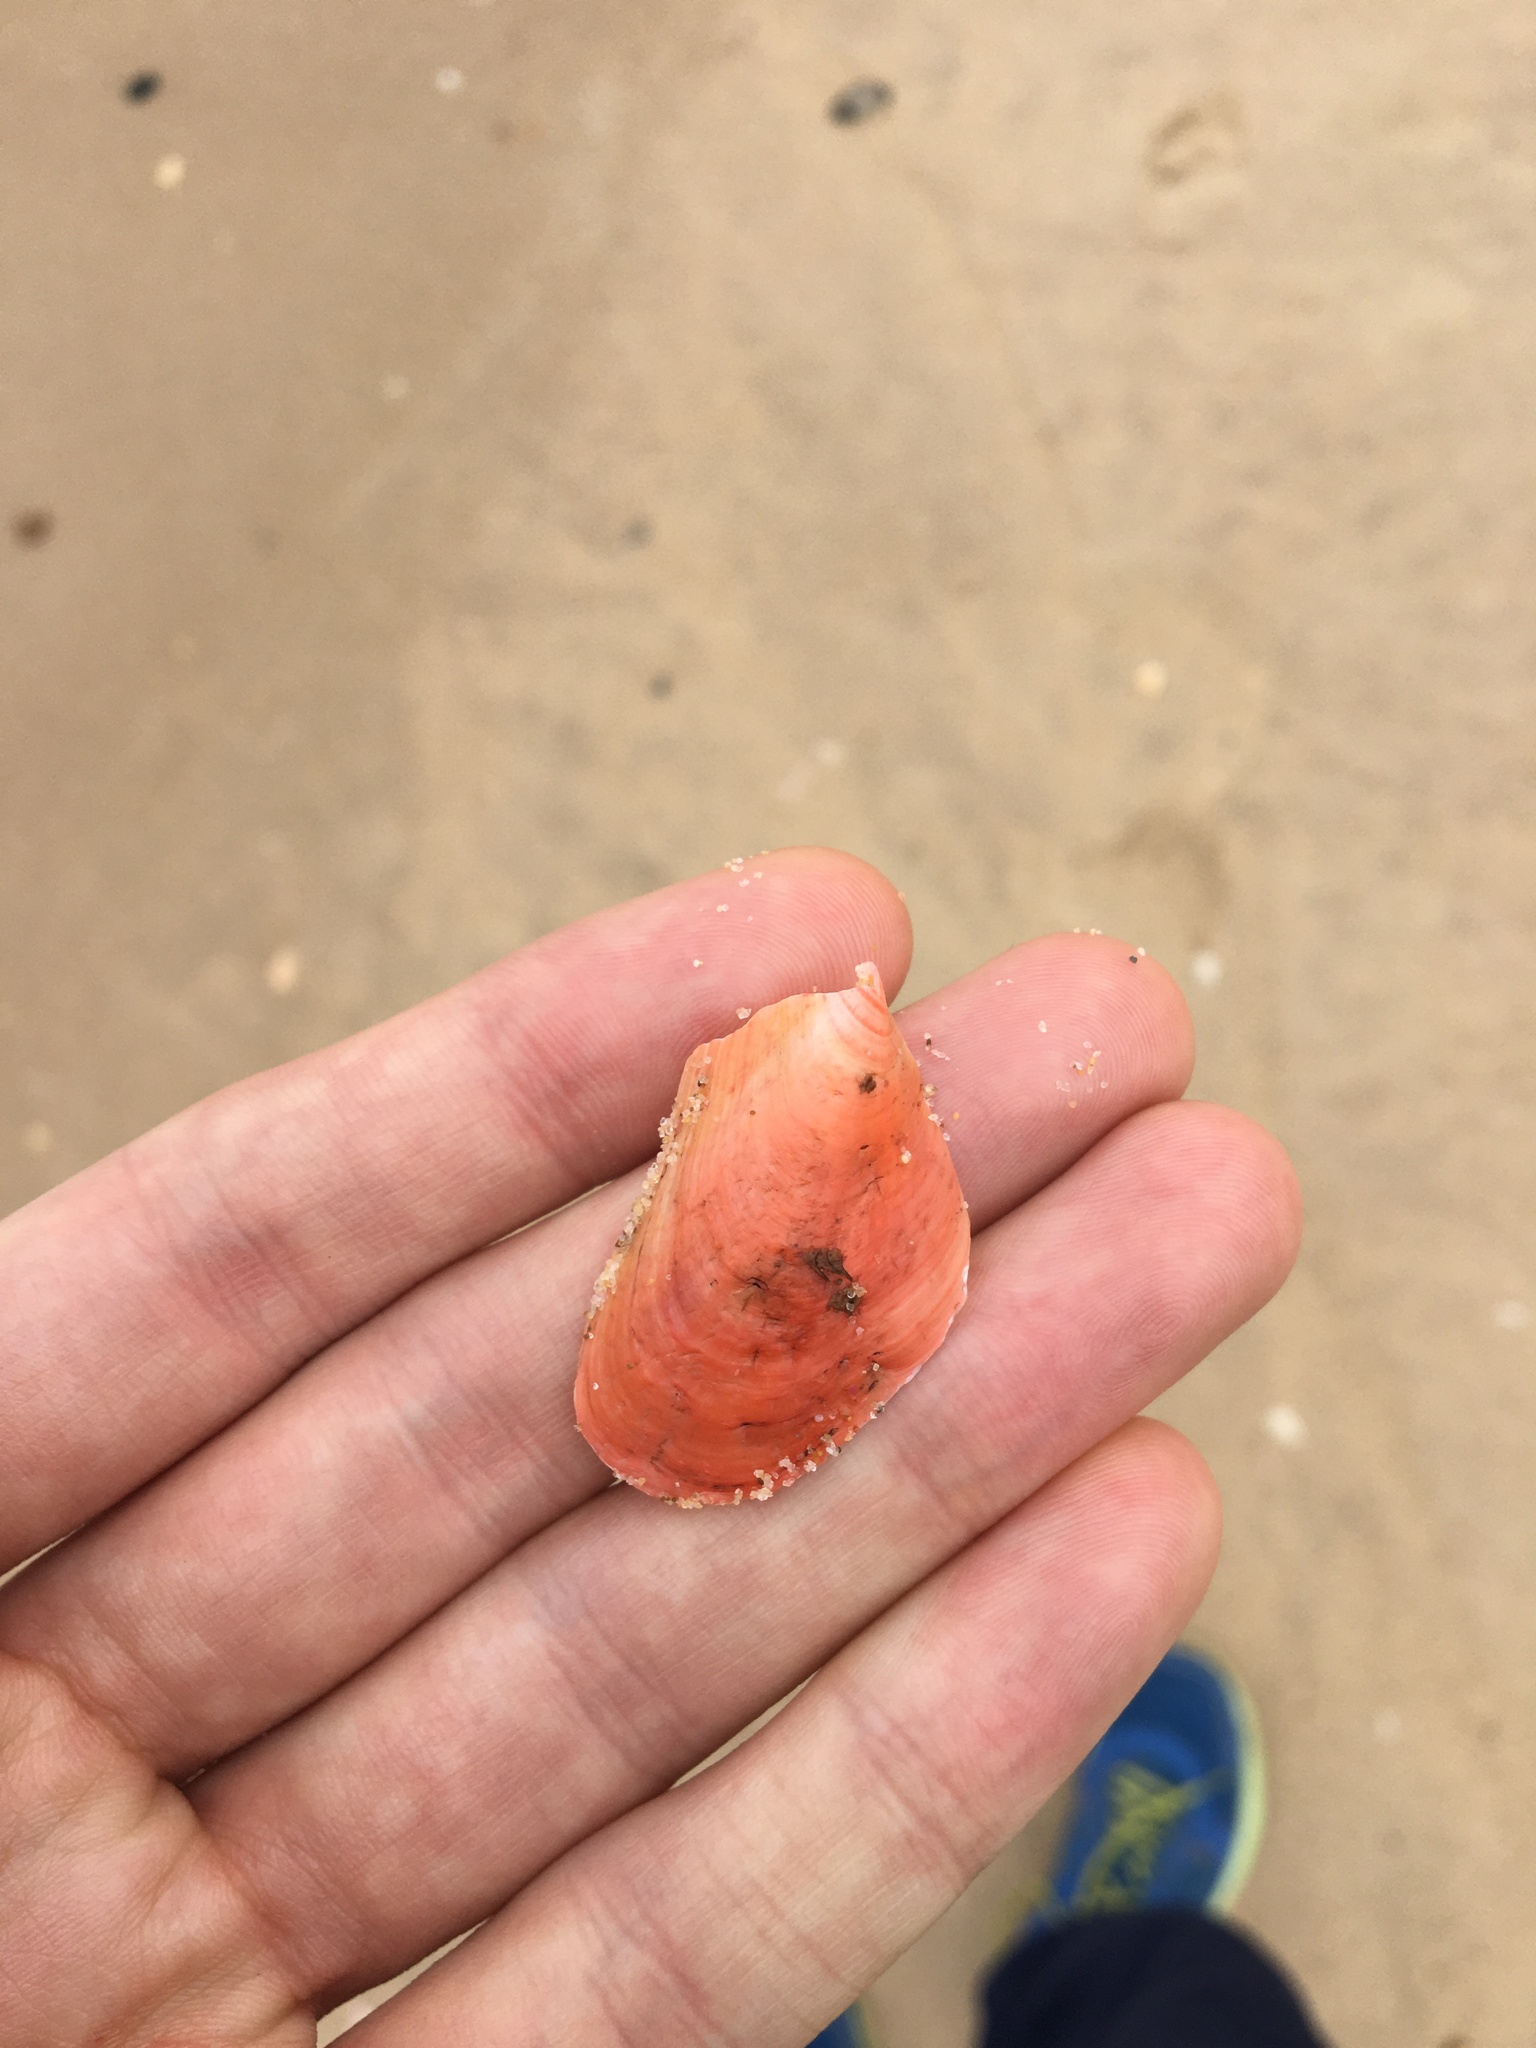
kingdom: Animalia
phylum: Mollusca
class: Bivalvia
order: Mytilida
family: Mytilidae
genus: Modiolus
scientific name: Modiolus areolatus
